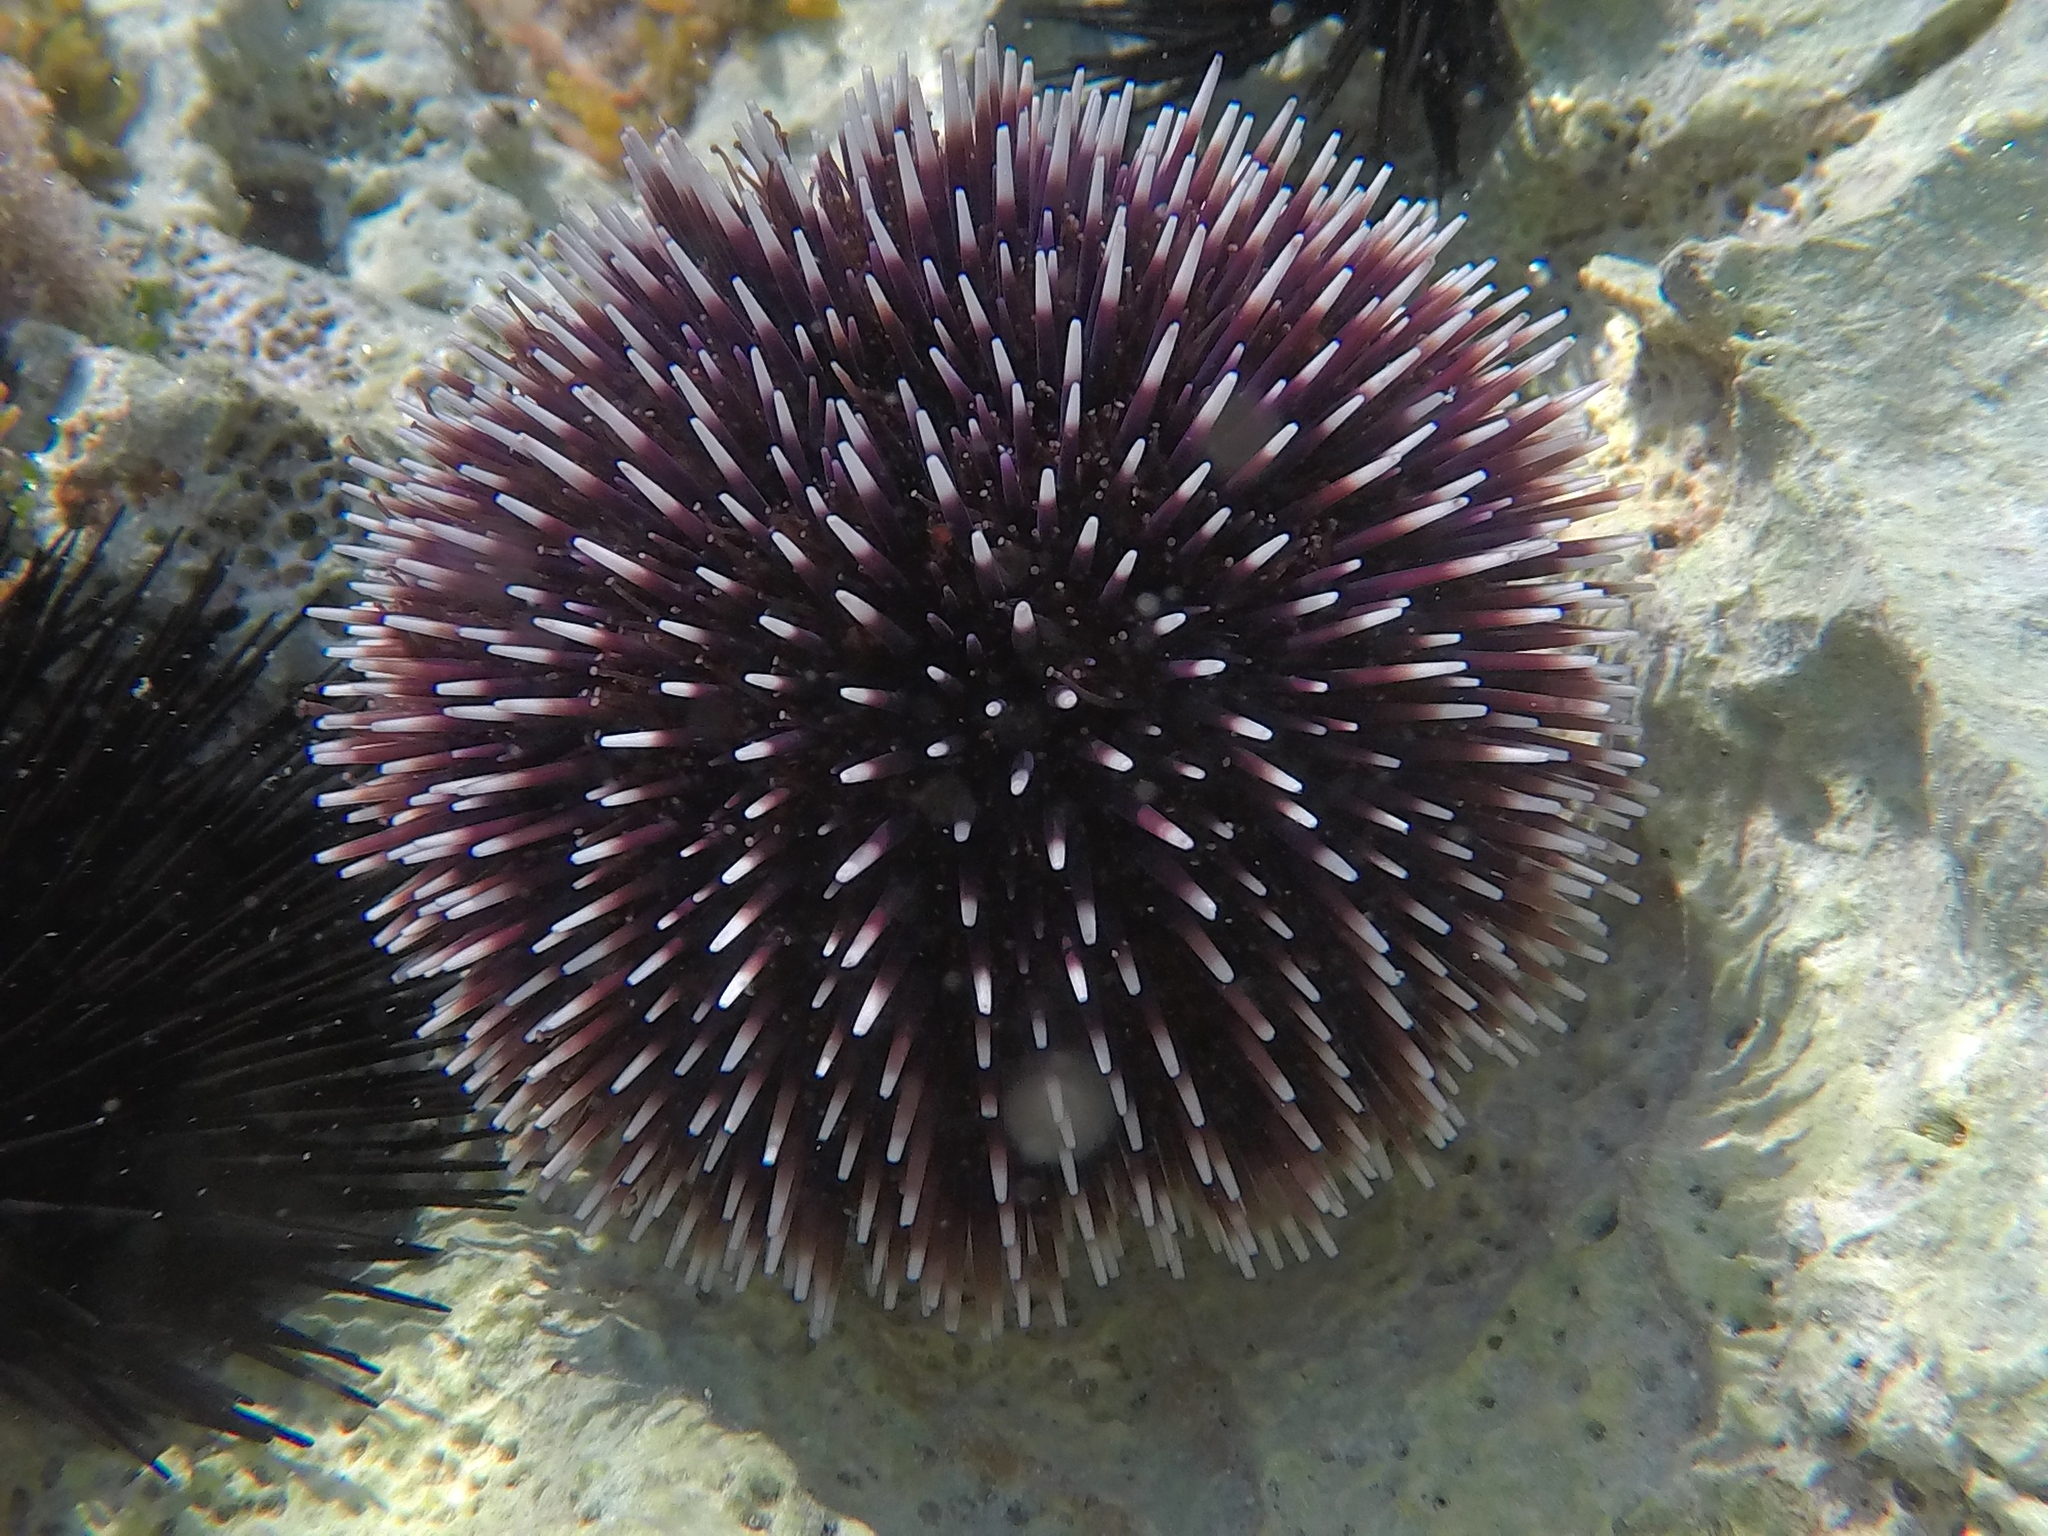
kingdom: Animalia
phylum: Echinodermata
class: Echinoidea
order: Camarodonta
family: Toxopneustidae
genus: Sphaerechinus
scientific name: Sphaerechinus granularis
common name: Violet sea urchin
